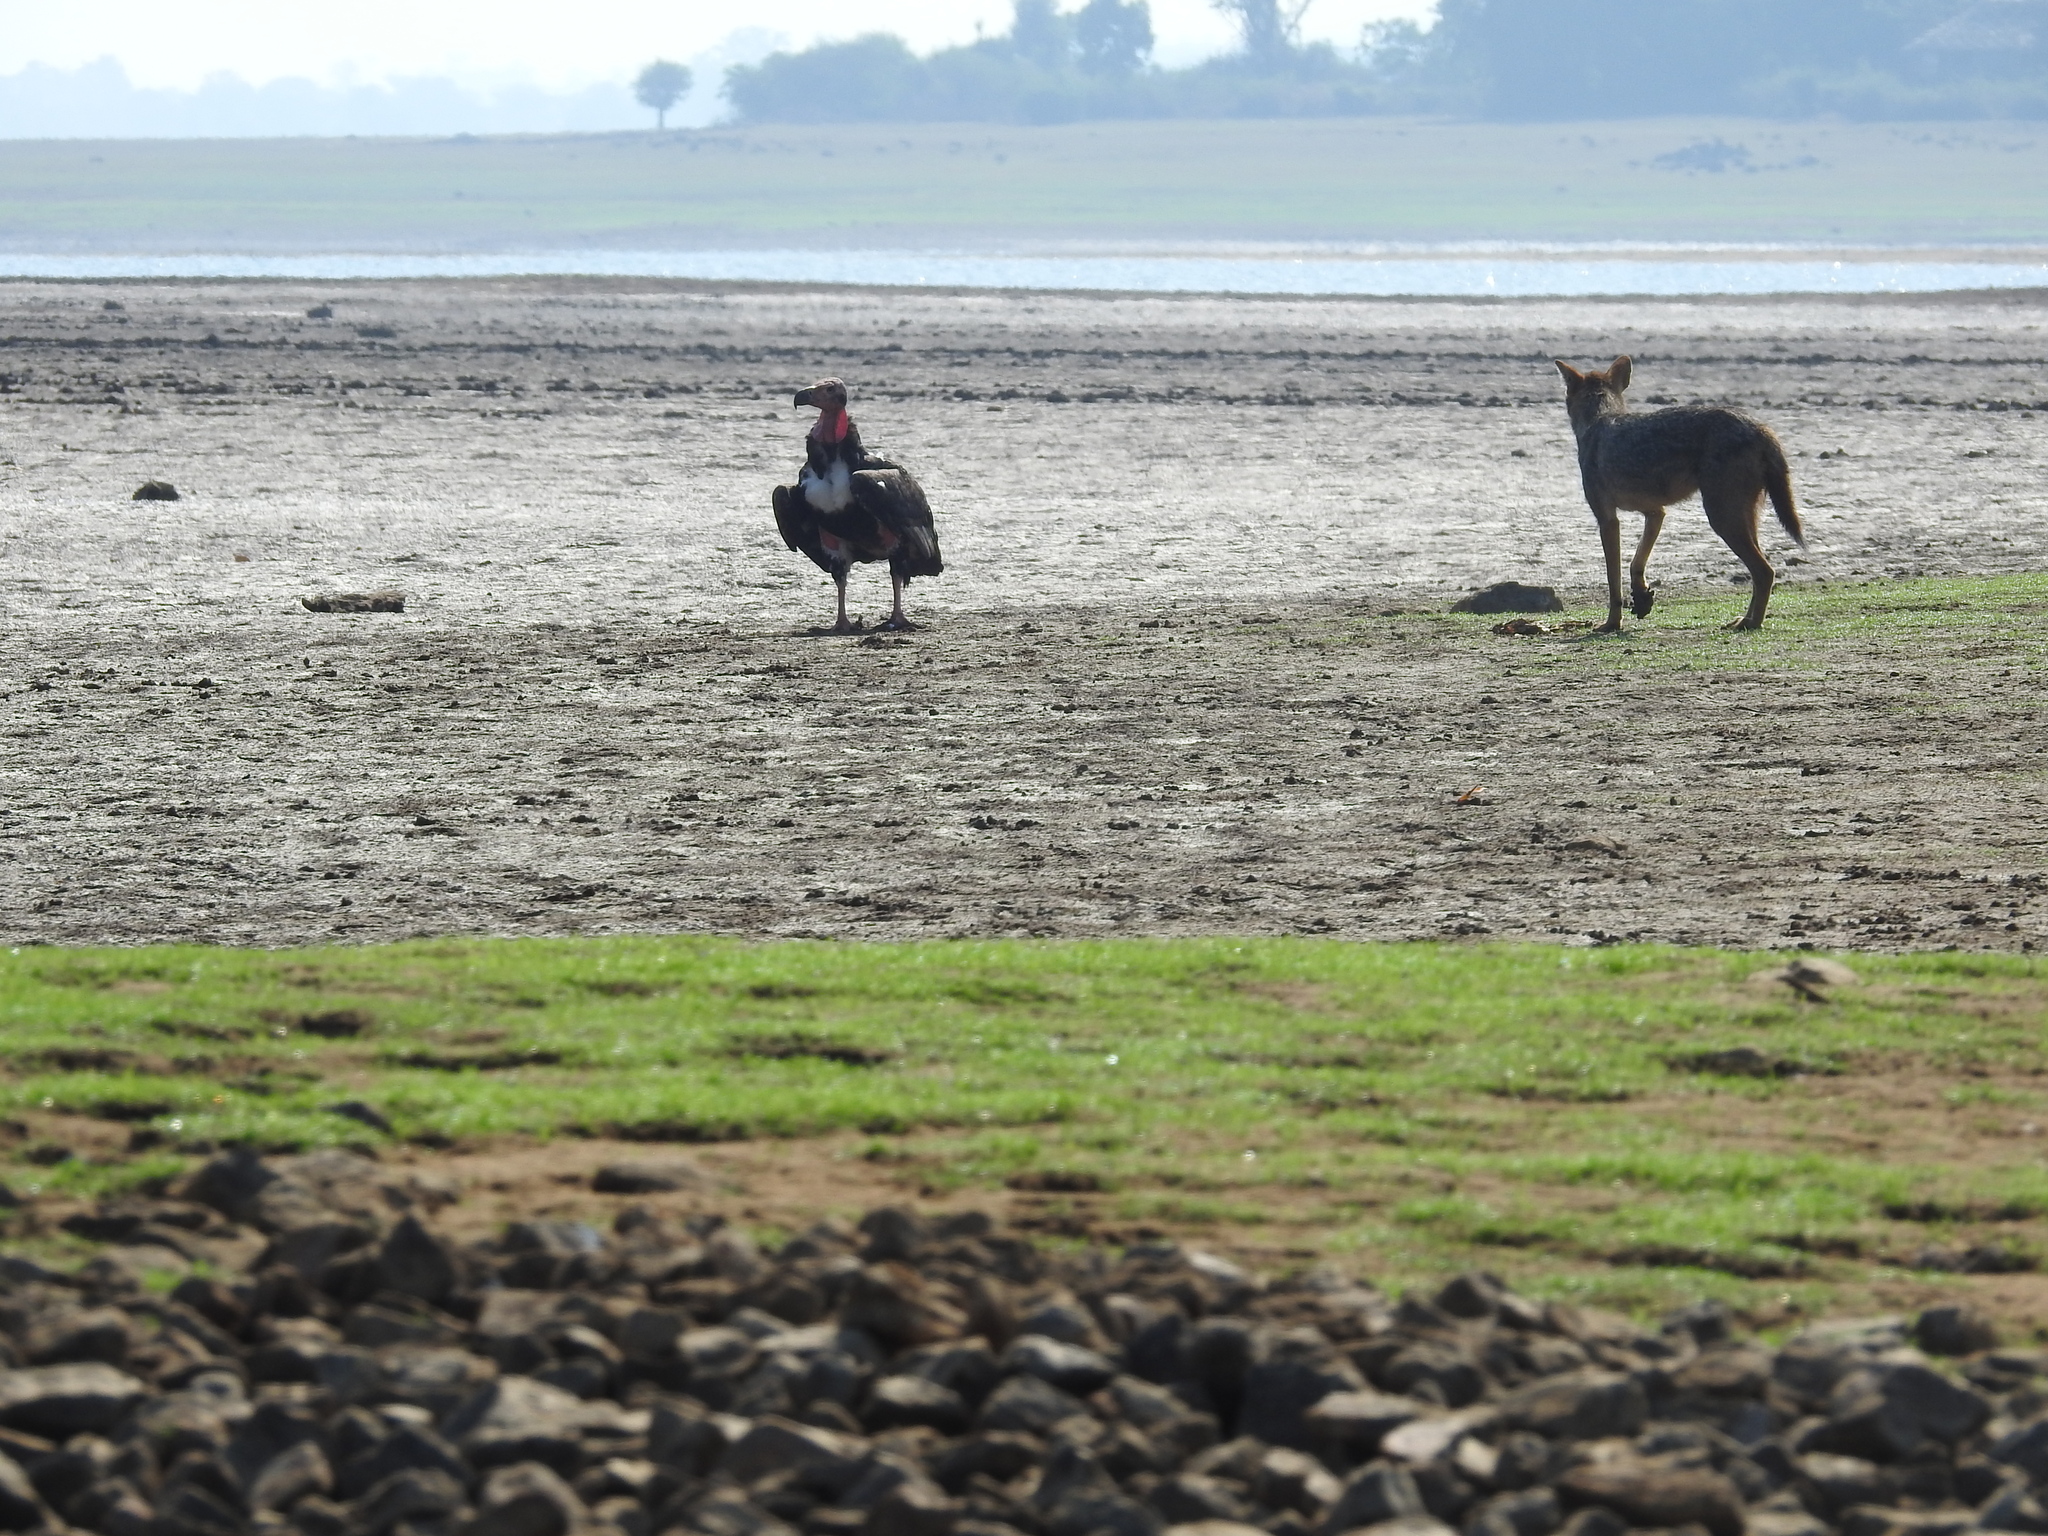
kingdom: Animalia
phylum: Chordata
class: Mammalia
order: Carnivora
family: Canidae
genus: Canis
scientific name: Canis aureus
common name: Golden jackal
